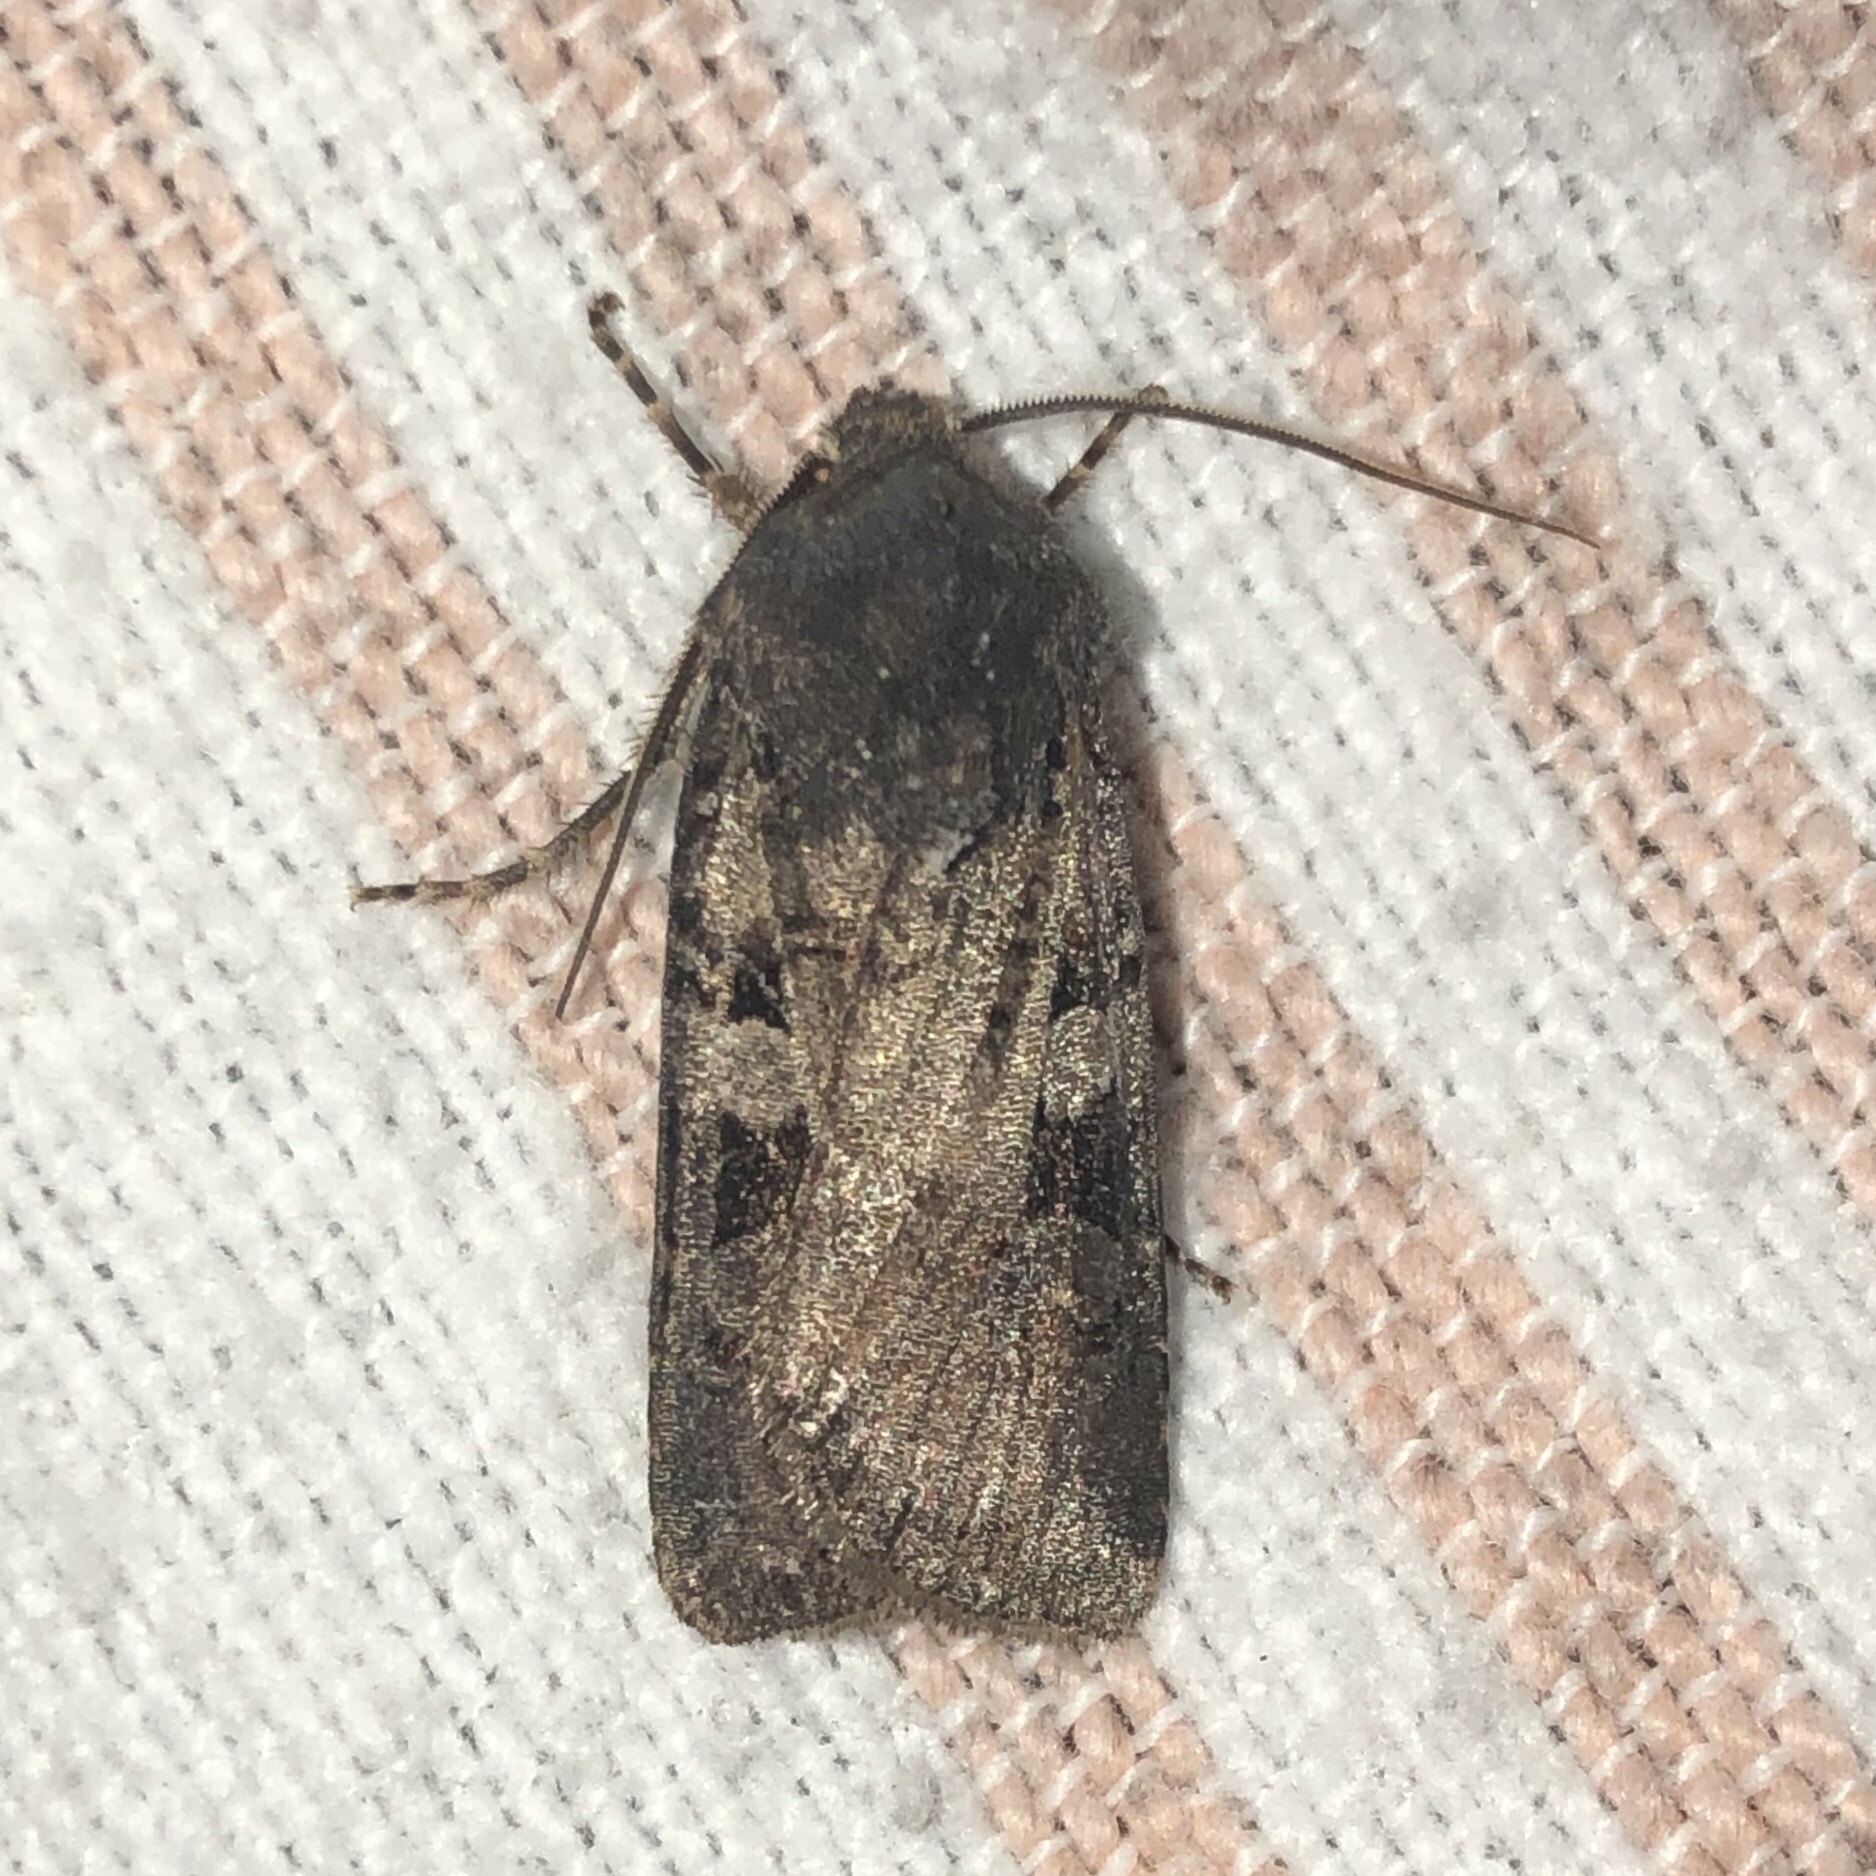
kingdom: Animalia
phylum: Arthropoda
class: Insecta
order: Lepidoptera
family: Noctuidae
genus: Euxoa
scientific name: Euxoa tessellata
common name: Striped cutworm
